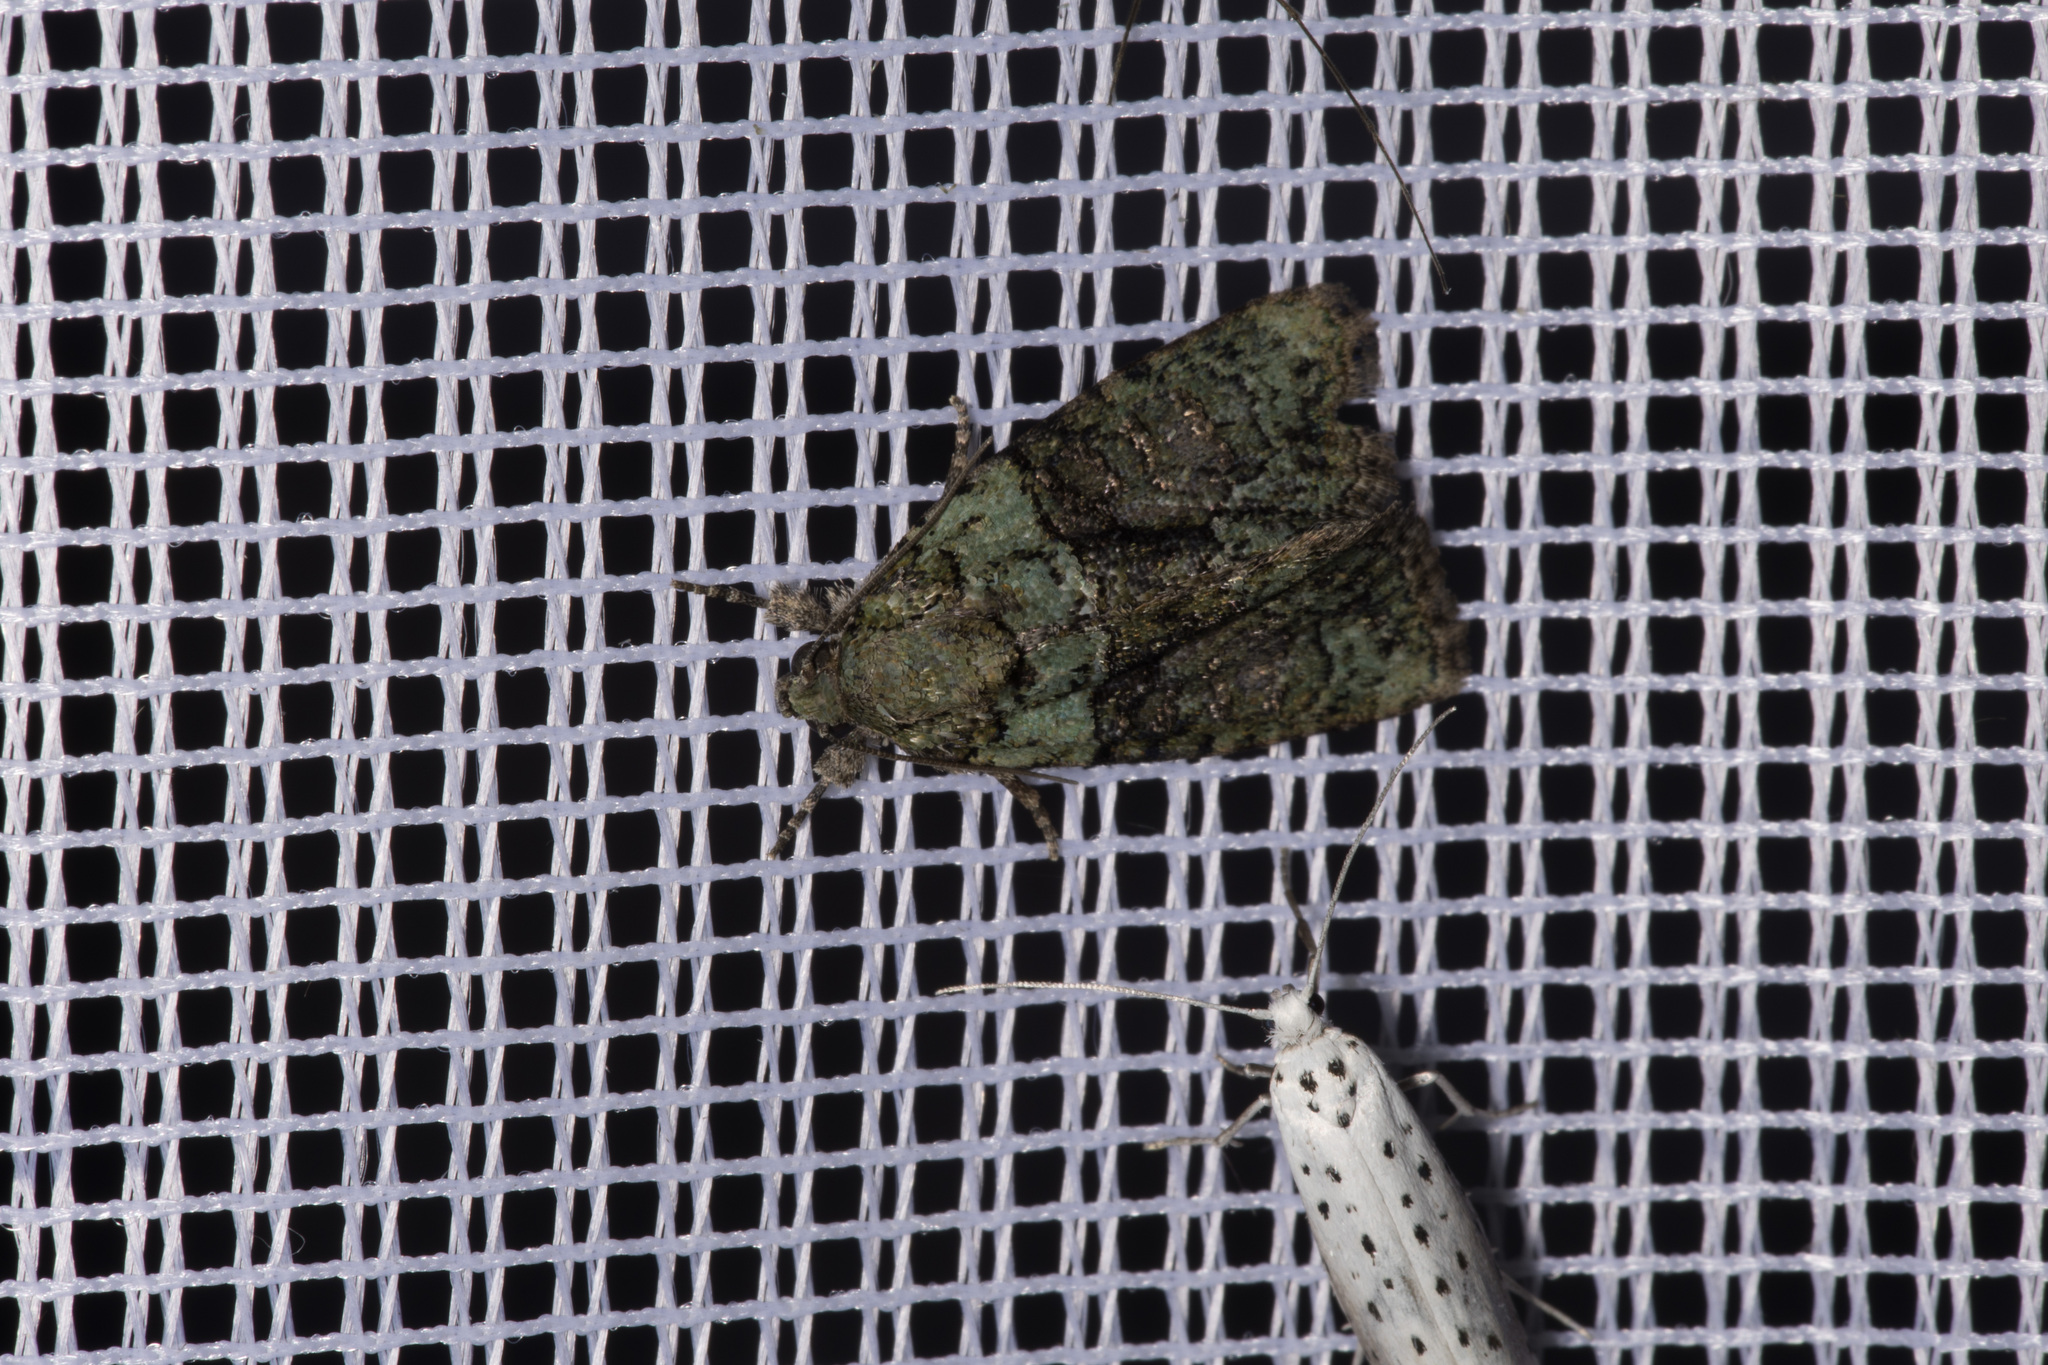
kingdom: Animalia
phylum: Arthropoda
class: Insecta
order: Lepidoptera
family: Noctuidae
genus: Cryphia
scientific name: Cryphia algae
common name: Tree-lichen beauty
